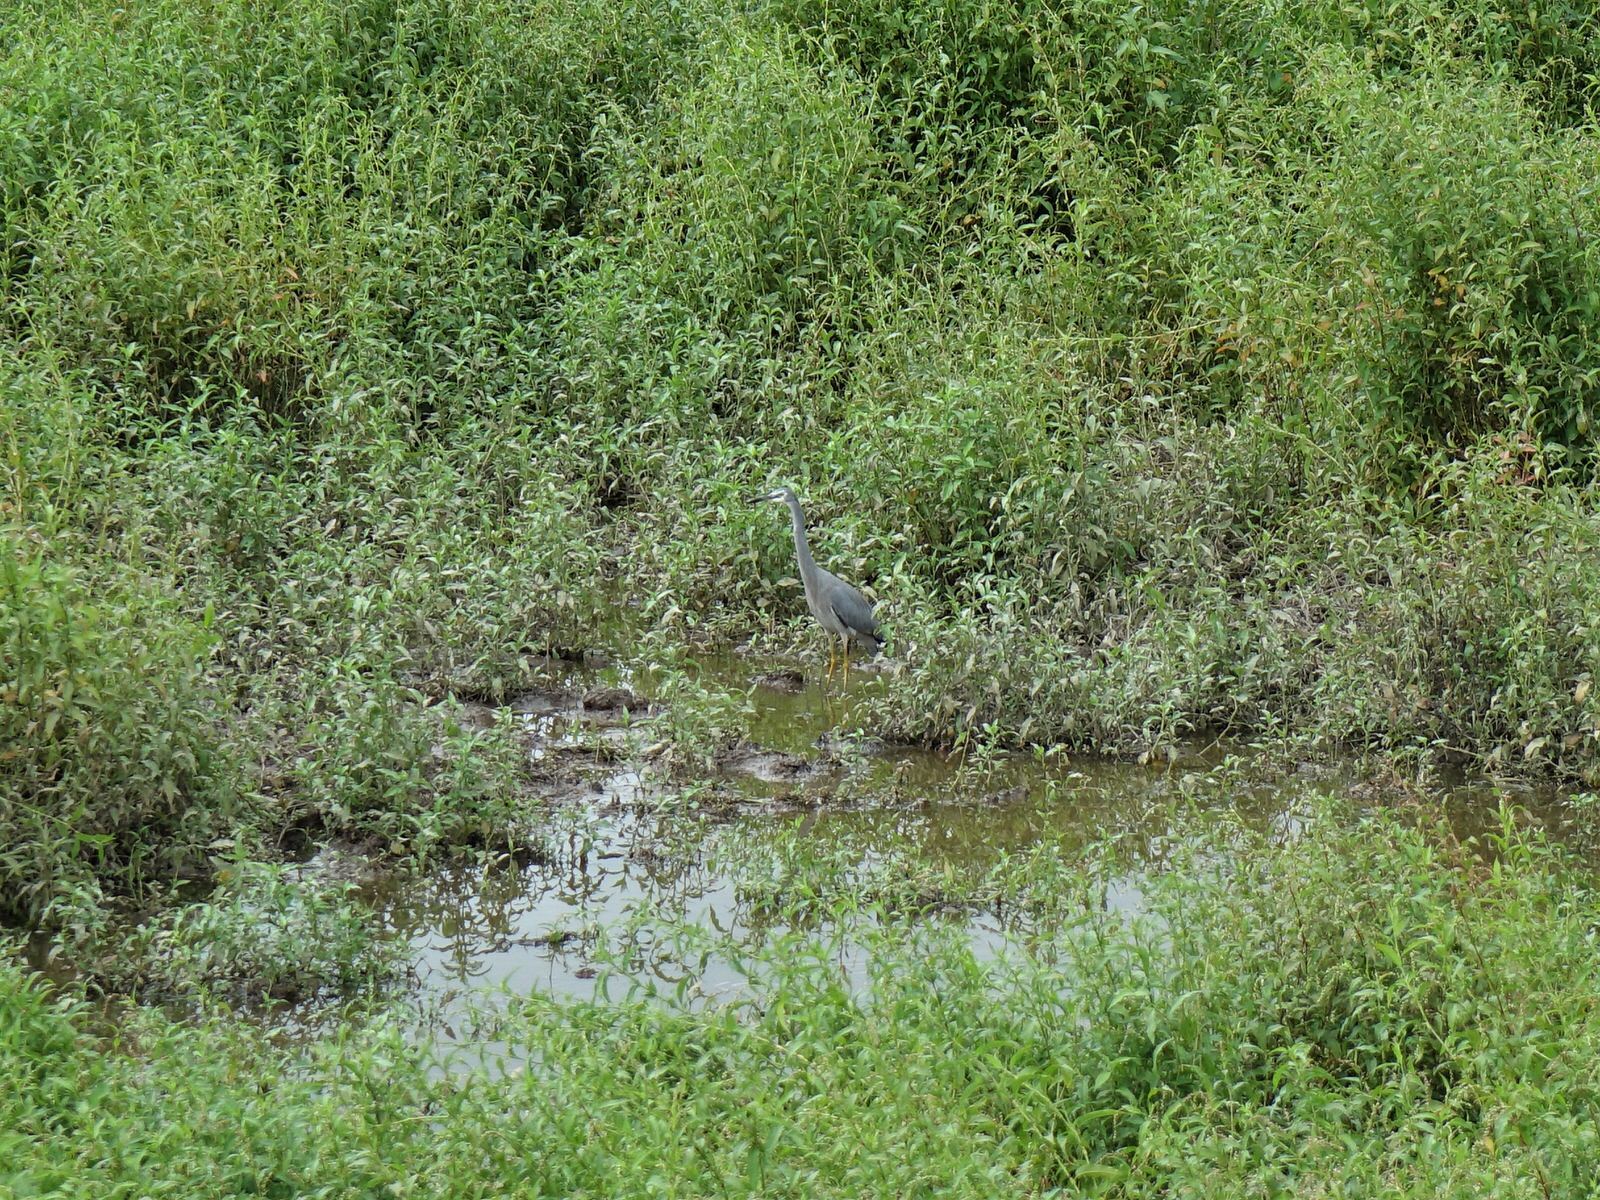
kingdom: Animalia
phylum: Chordata
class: Aves
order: Pelecaniformes
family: Ardeidae
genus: Egretta
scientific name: Egretta novaehollandiae
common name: White-faced heron
